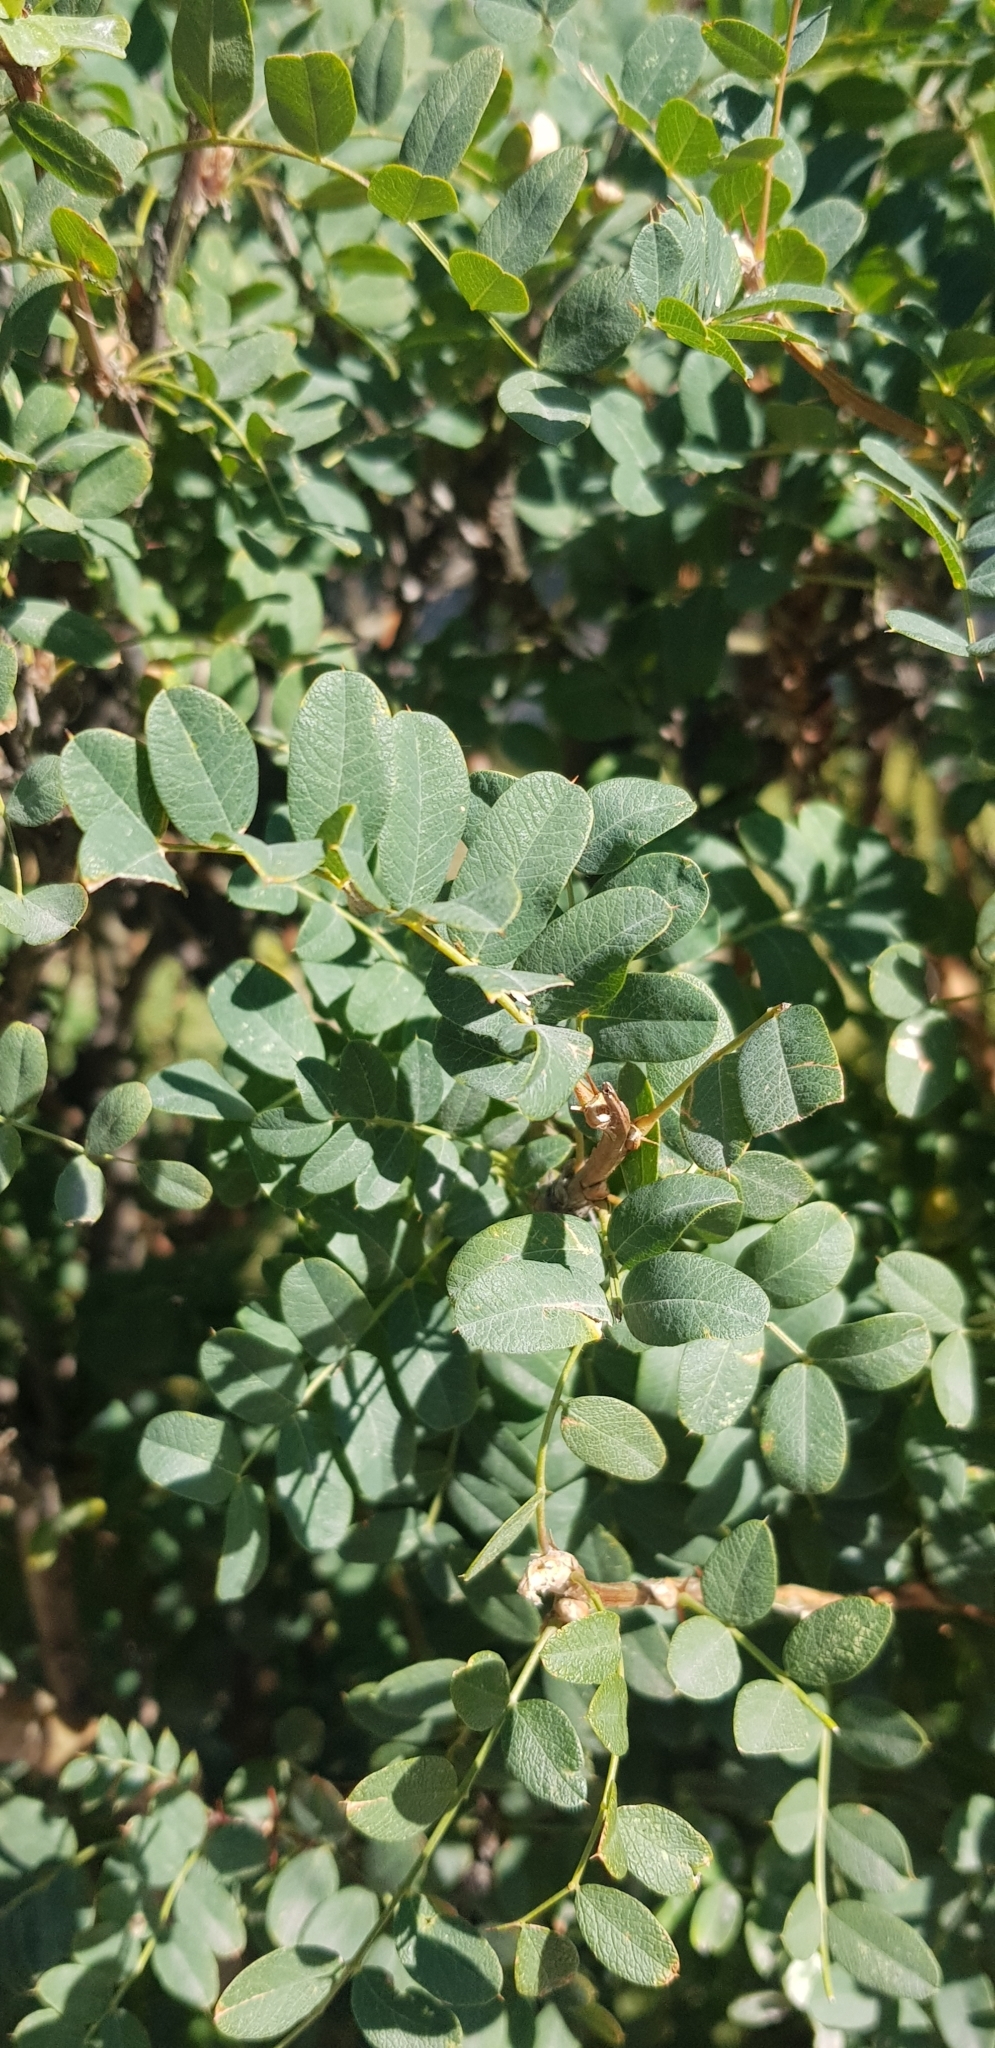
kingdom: Plantae
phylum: Tracheophyta
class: Magnoliopsida
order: Fabales
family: Fabaceae
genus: Caragana
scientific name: Caragana arborescens
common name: Siberian peashrub
